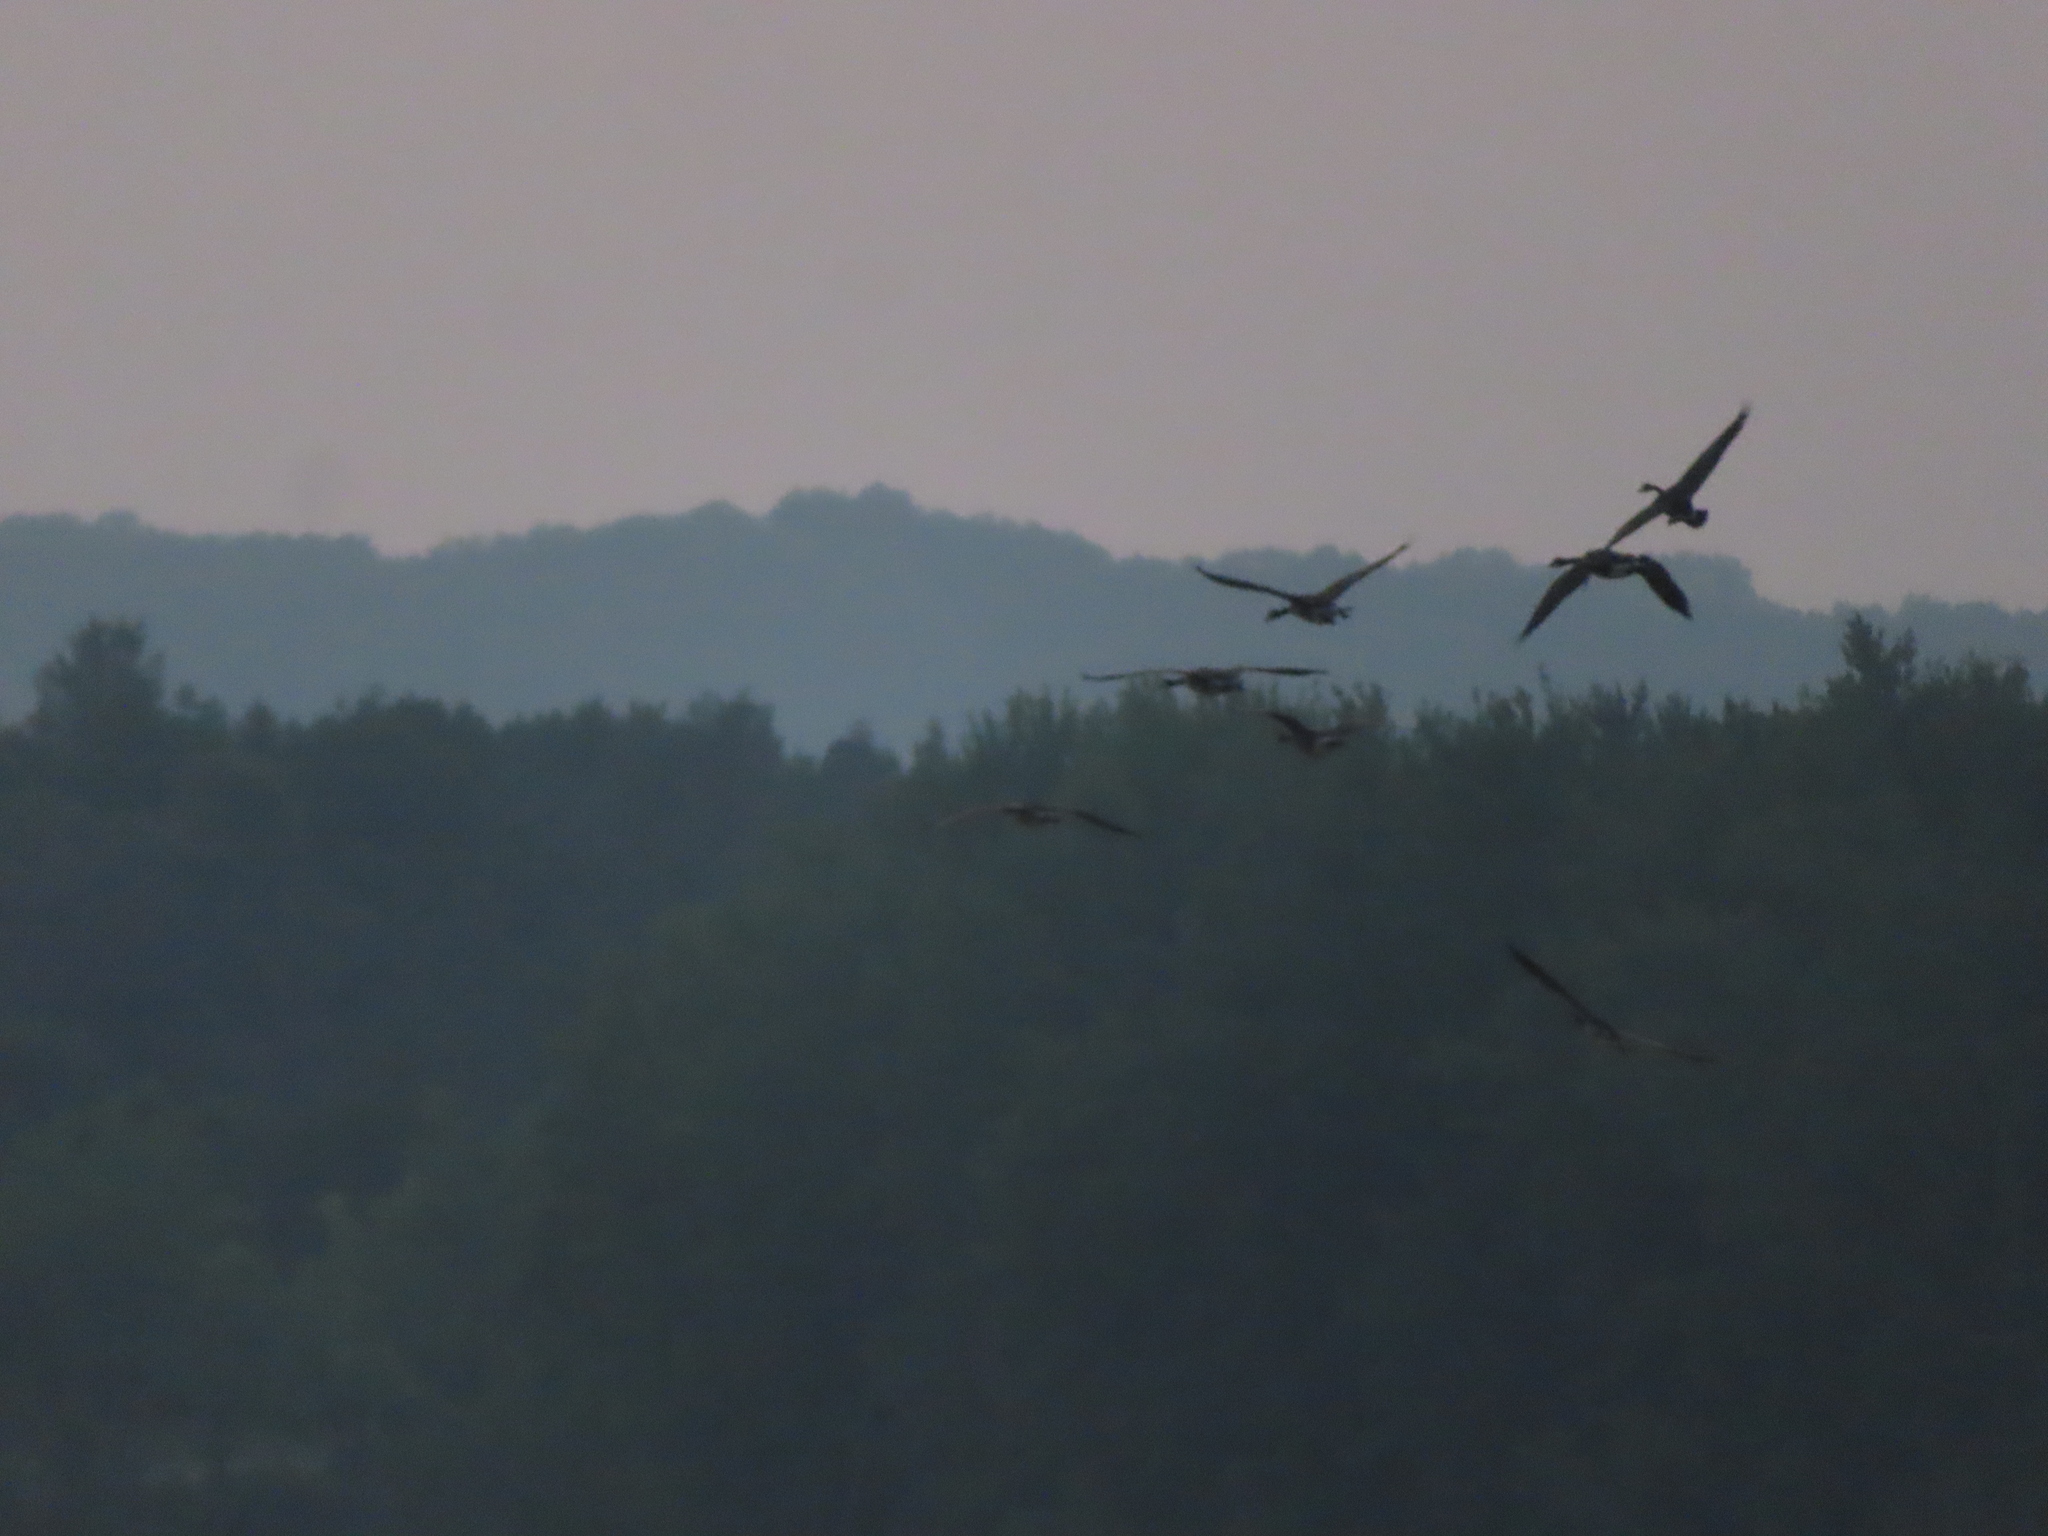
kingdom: Animalia
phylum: Chordata
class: Aves
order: Anseriformes
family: Anatidae
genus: Branta
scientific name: Branta canadensis
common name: Canada goose
